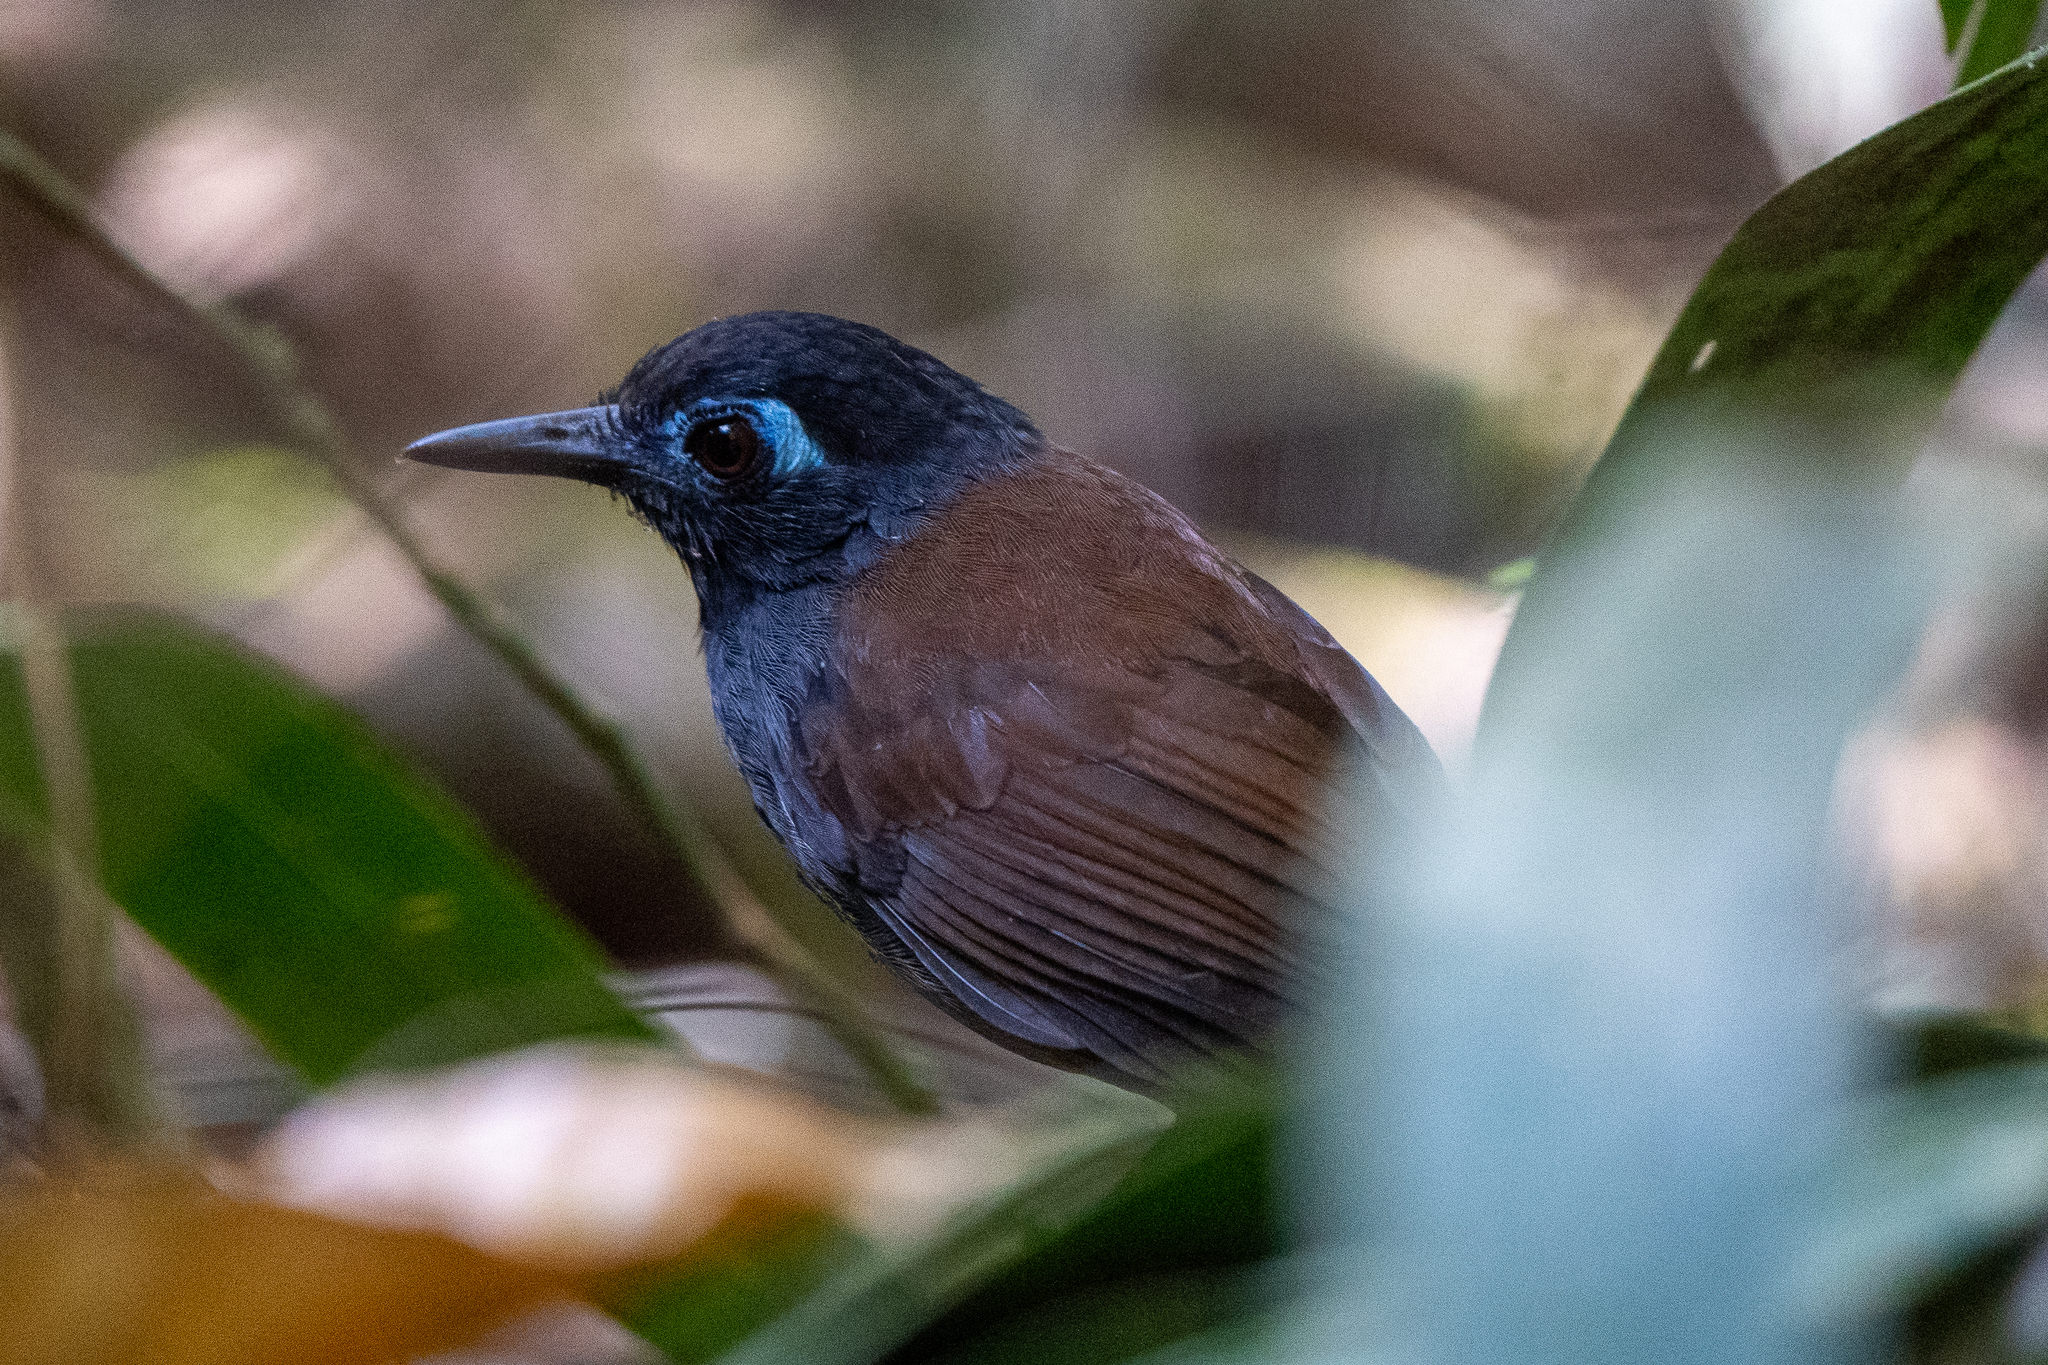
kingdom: Animalia
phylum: Chordata
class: Aves
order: Passeriformes
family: Thamnophilidae
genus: Myrmeciza
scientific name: Myrmeciza exsul
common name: Chestnut-backed antbird
